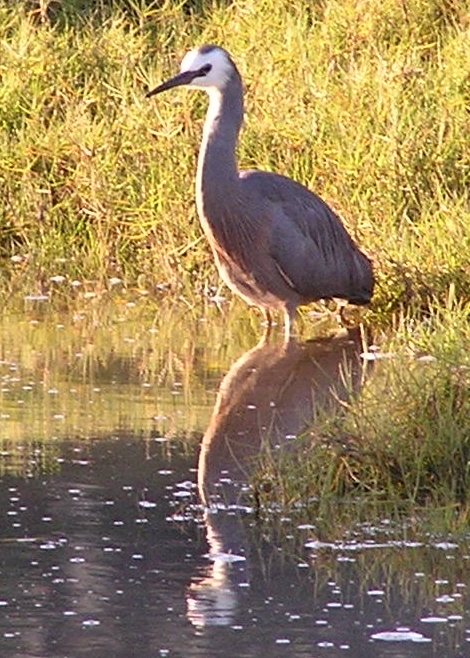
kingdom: Animalia
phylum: Chordata
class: Aves
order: Pelecaniformes
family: Ardeidae
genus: Egretta
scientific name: Egretta novaehollandiae
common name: White-faced heron
